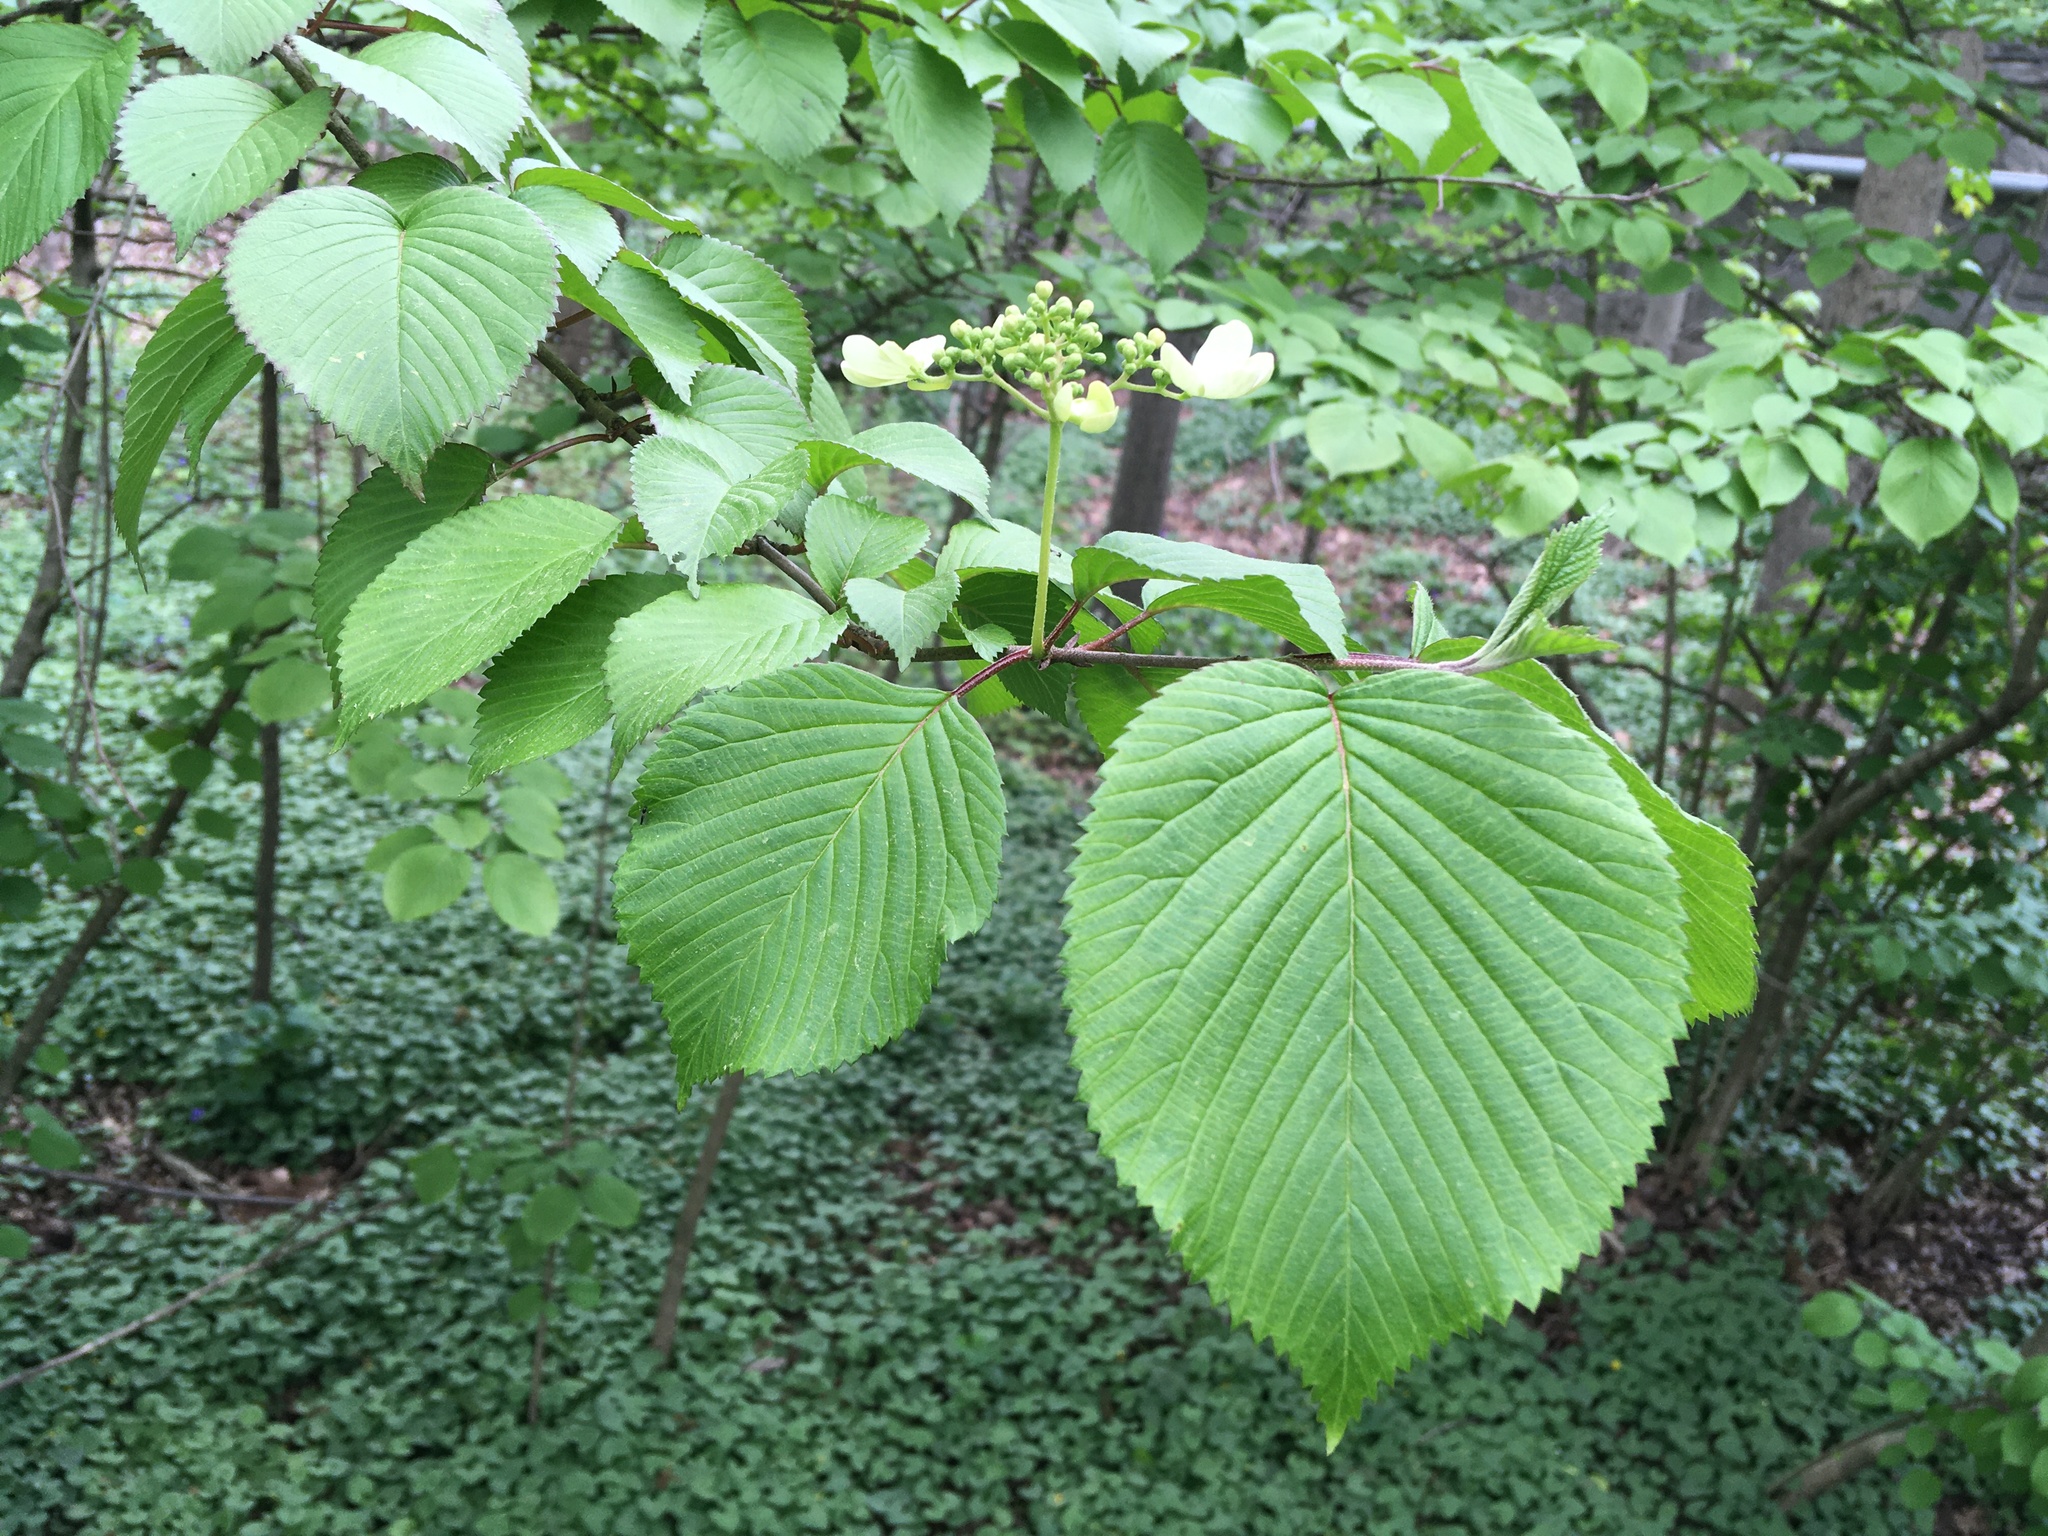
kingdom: Plantae
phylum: Tracheophyta
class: Magnoliopsida
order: Dipsacales
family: Viburnaceae
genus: Viburnum
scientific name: Viburnum plicatum
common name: Japanese snowball
